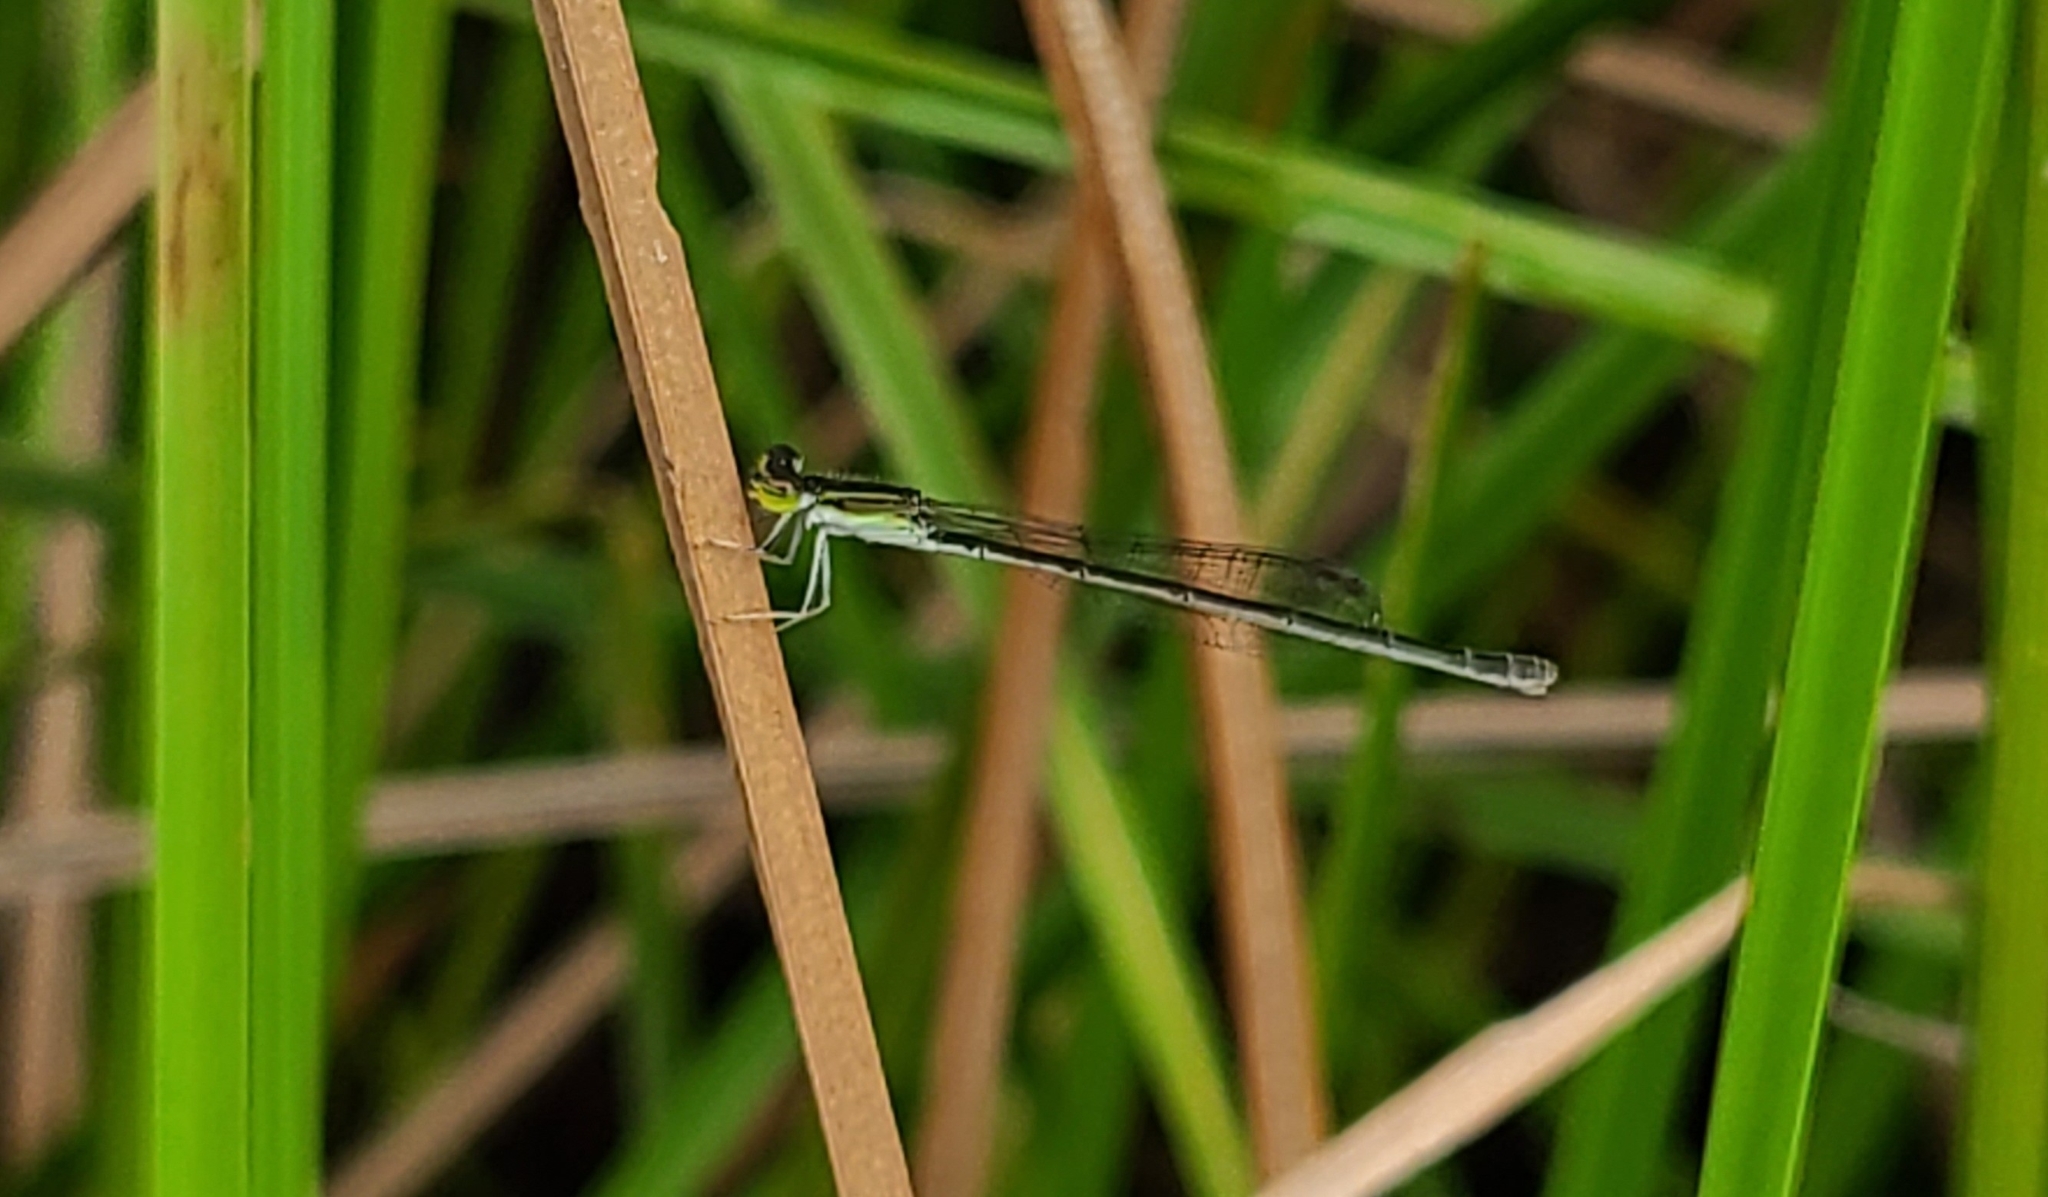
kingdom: Animalia
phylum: Arthropoda
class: Insecta
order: Odonata
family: Coenagrionidae
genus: Ischnura
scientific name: Ischnura hastata
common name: Citrine forktail
